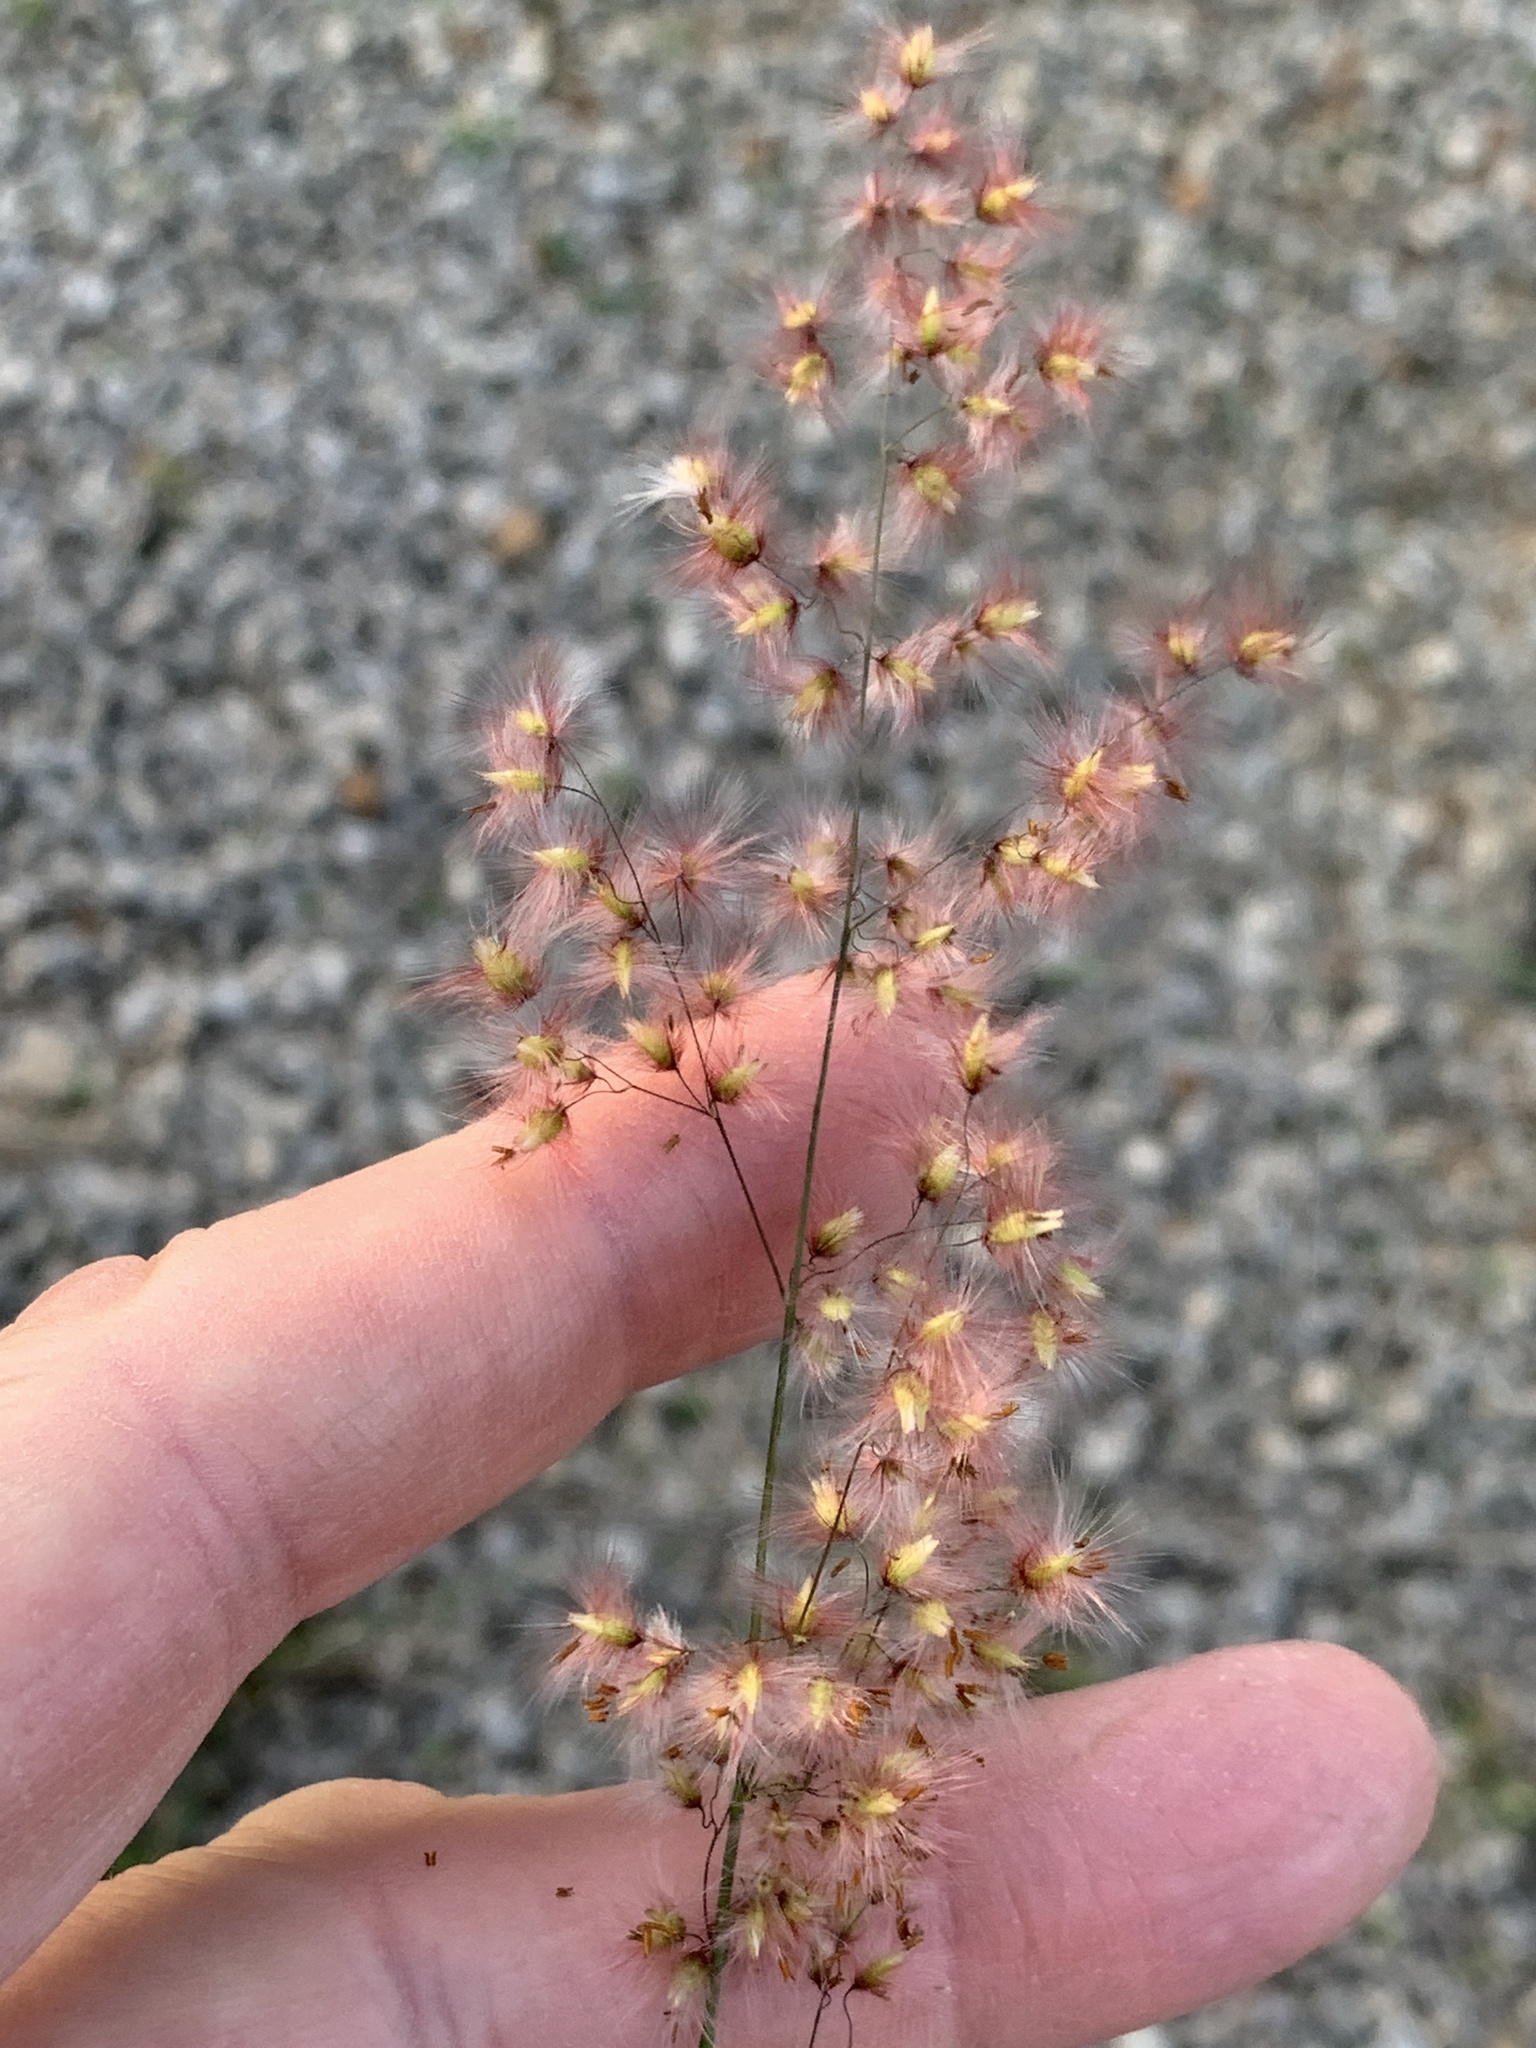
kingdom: Plantae
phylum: Tracheophyta
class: Liliopsida
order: Poales
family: Poaceae
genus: Melinis
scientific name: Melinis repens
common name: Rose natal grass
